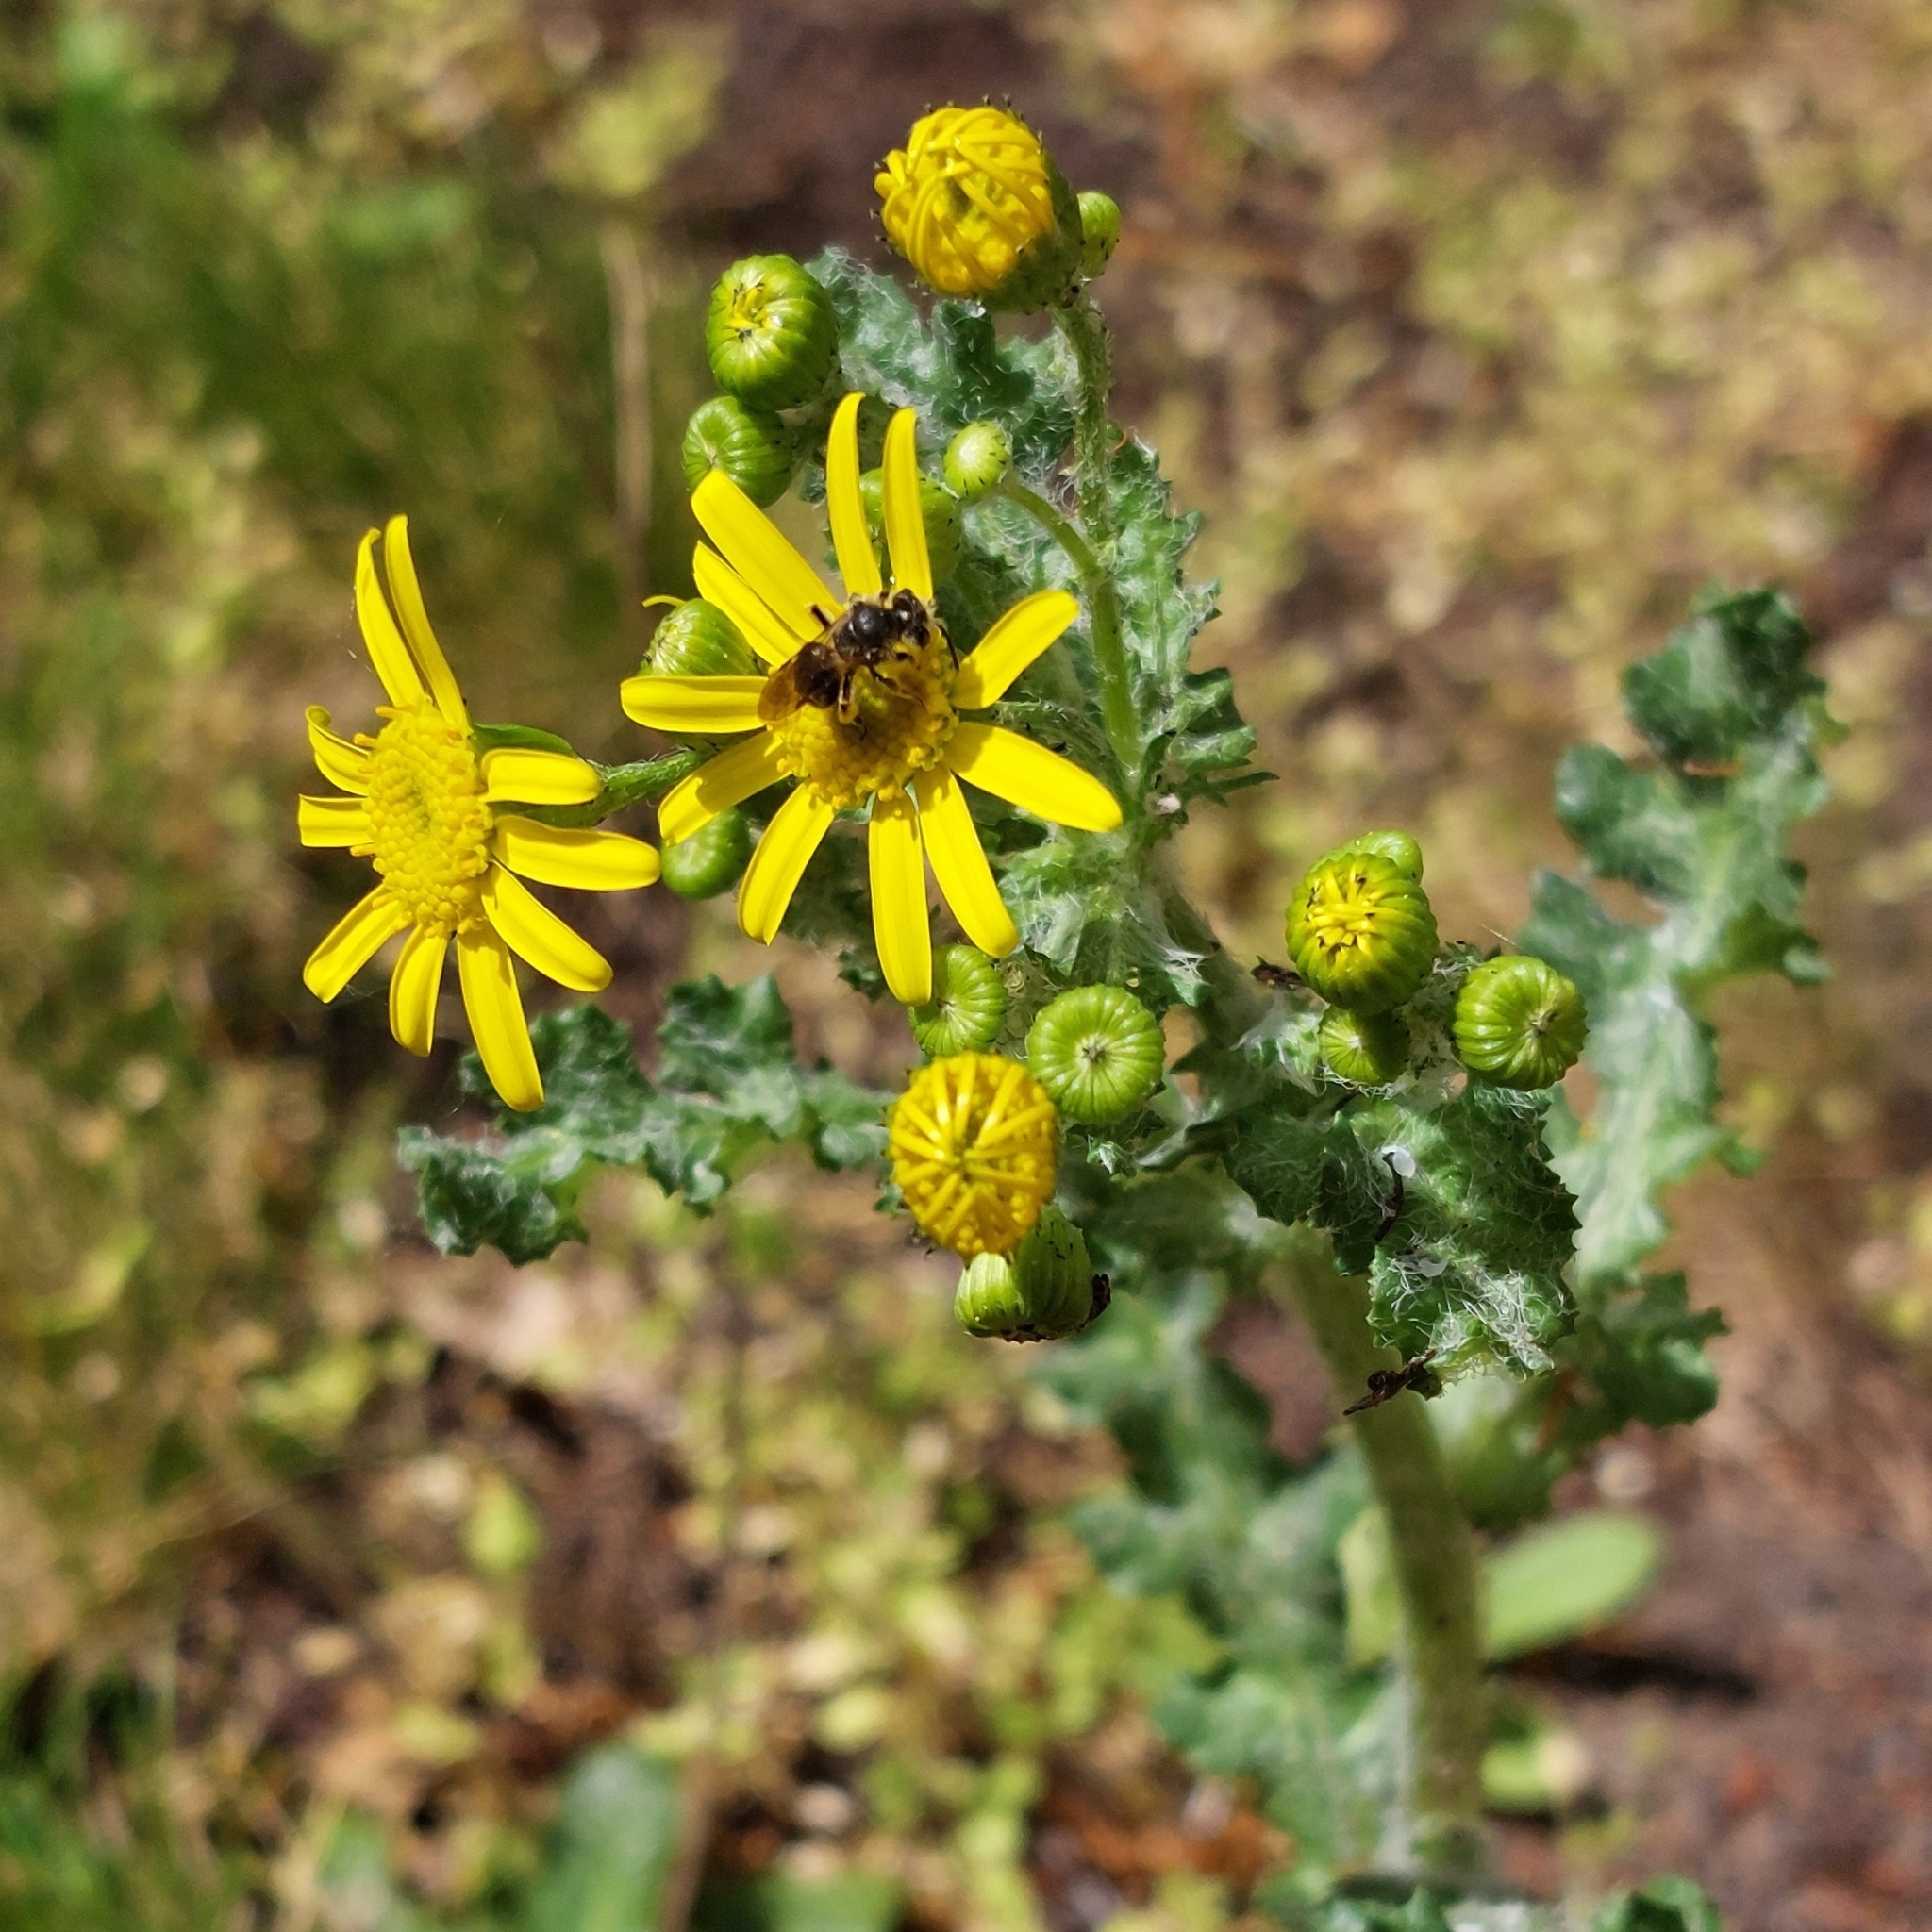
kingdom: Plantae
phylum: Tracheophyta
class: Magnoliopsida
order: Asterales
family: Asteraceae
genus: Senecio
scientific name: Senecio vernalis
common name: Eastern groundsel
